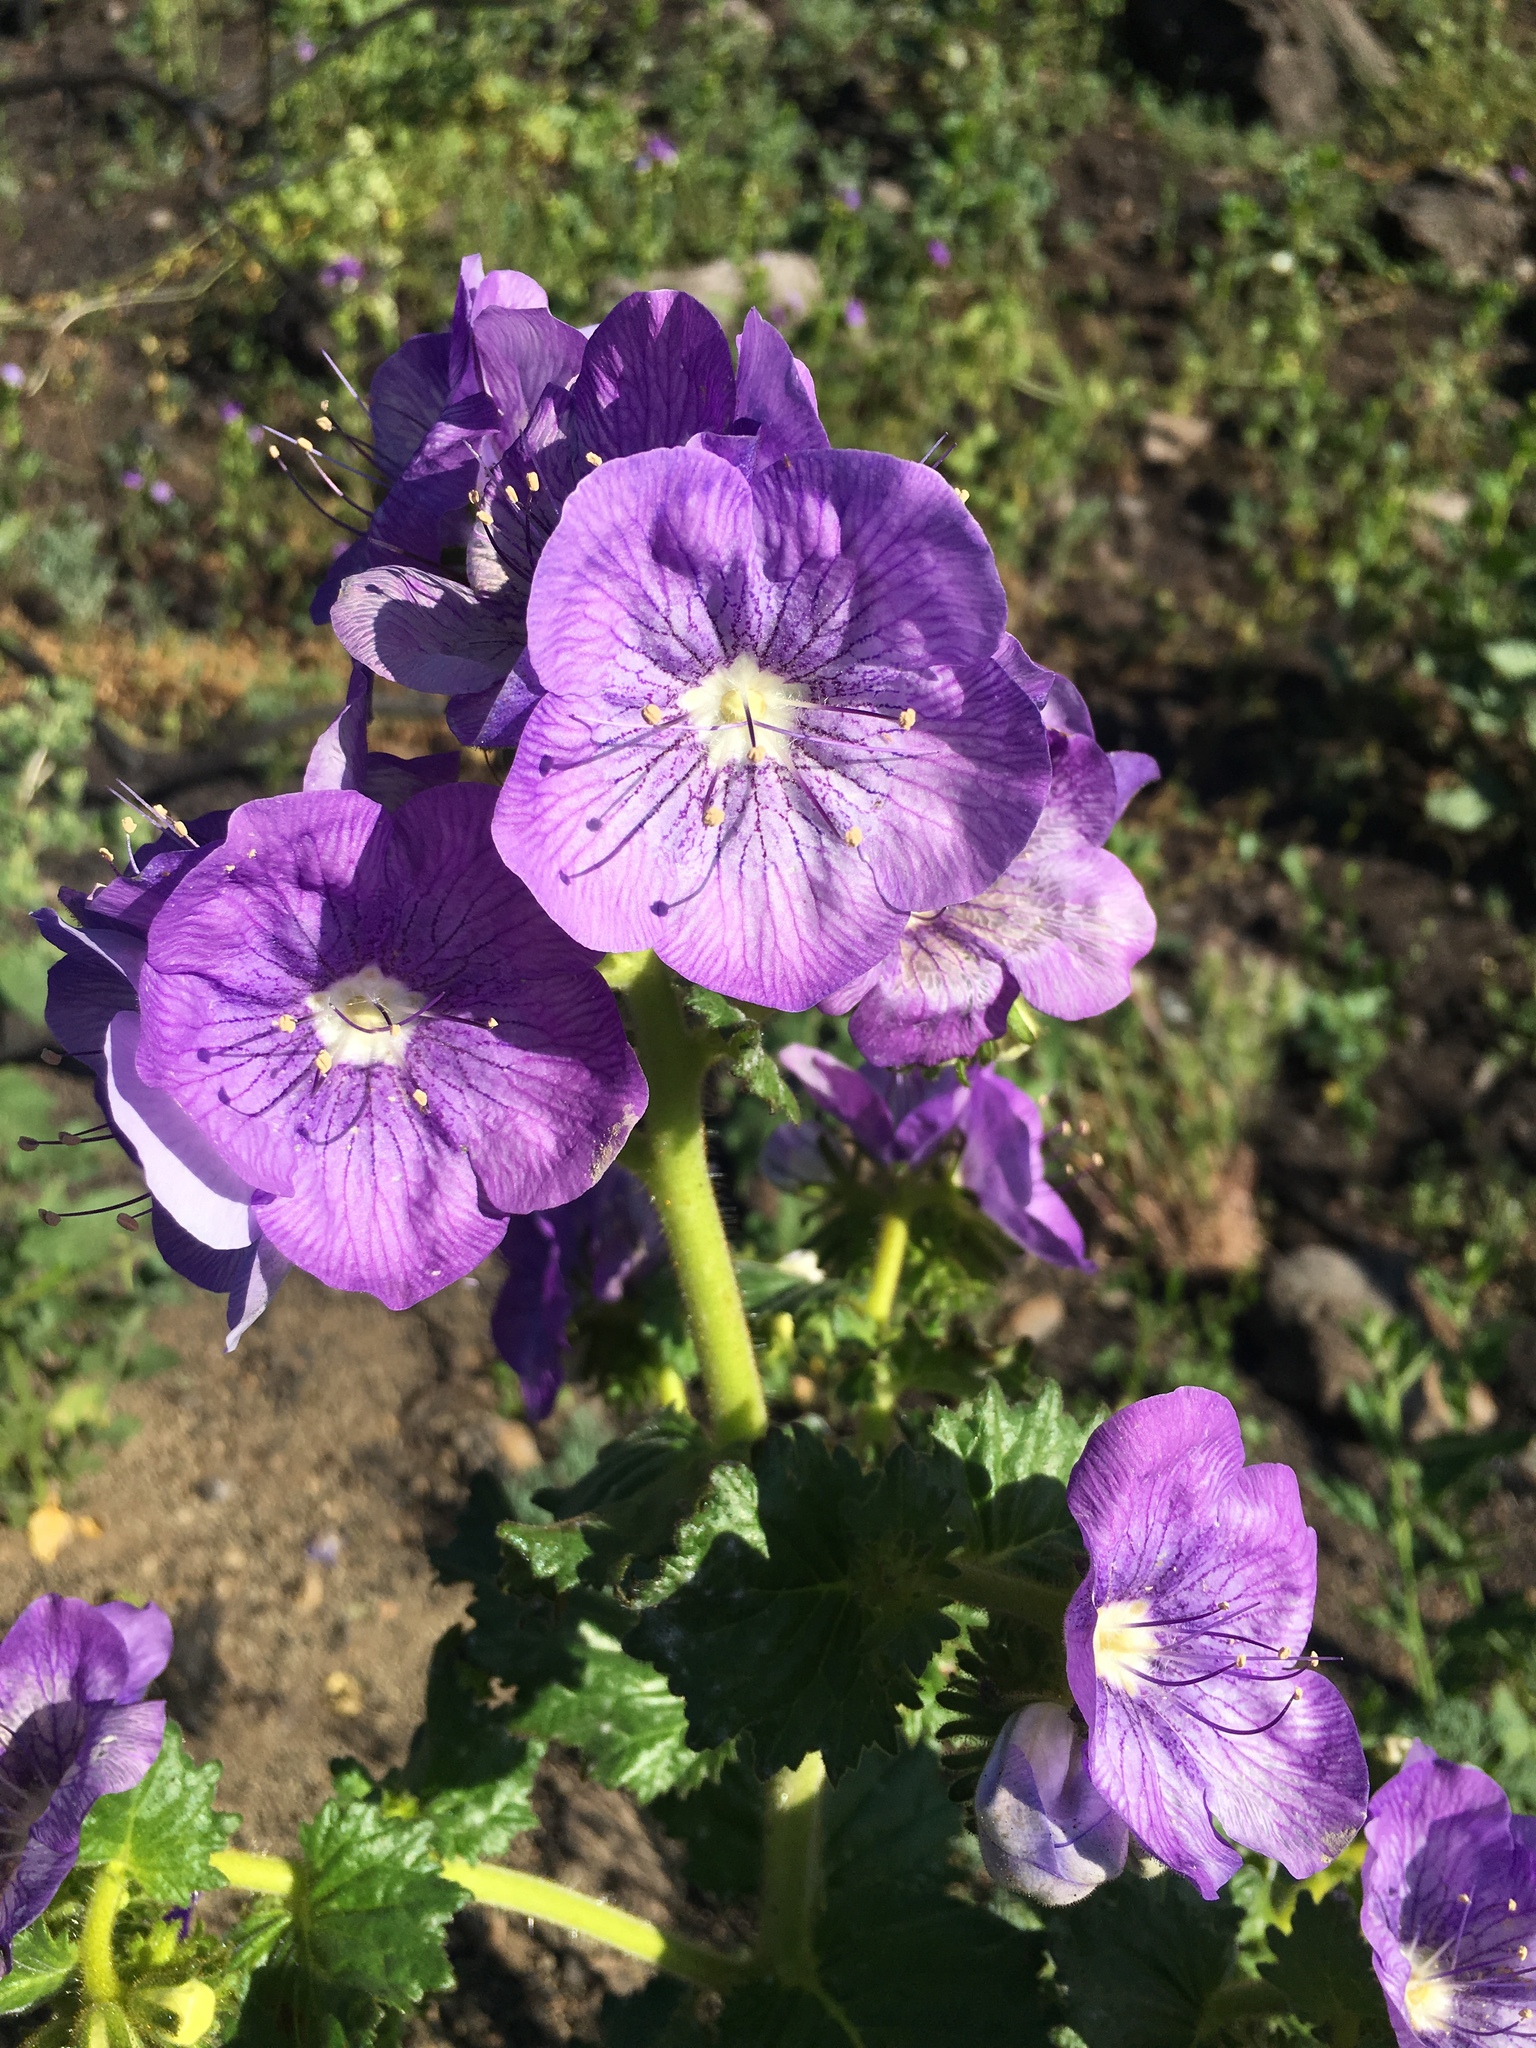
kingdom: Plantae
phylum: Tracheophyta
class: Magnoliopsida
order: Boraginales
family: Hydrophyllaceae
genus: Phacelia
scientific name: Phacelia grandiflora
